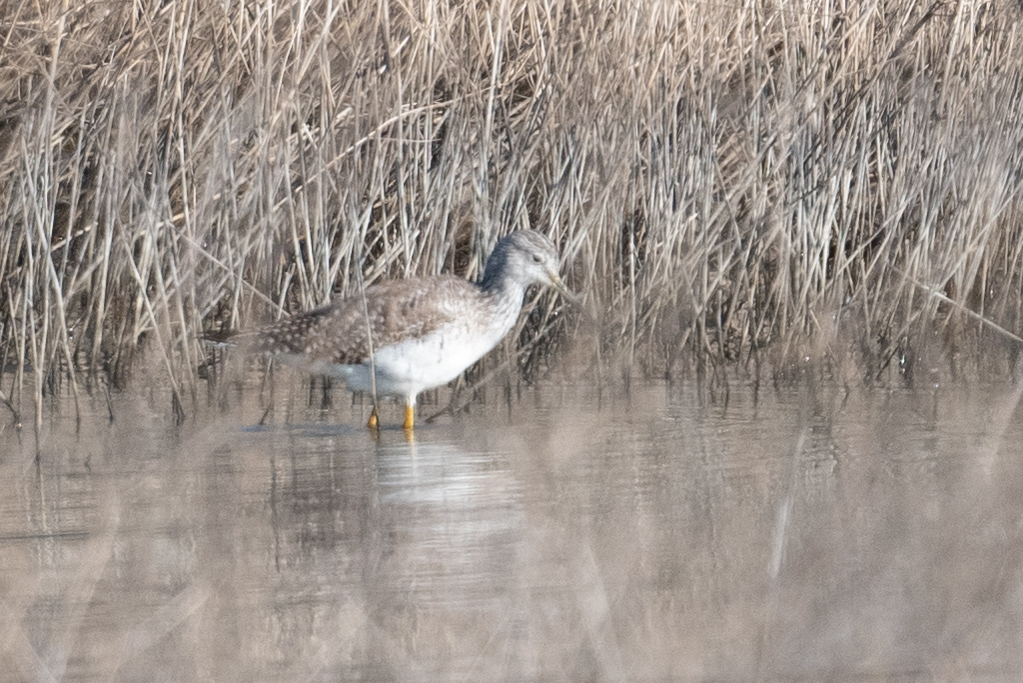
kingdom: Animalia
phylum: Chordata
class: Aves
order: Charadriiformes
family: Scolopacidae
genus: Tringa
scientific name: Tringa melanoleuca
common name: Greater yellowlegs
